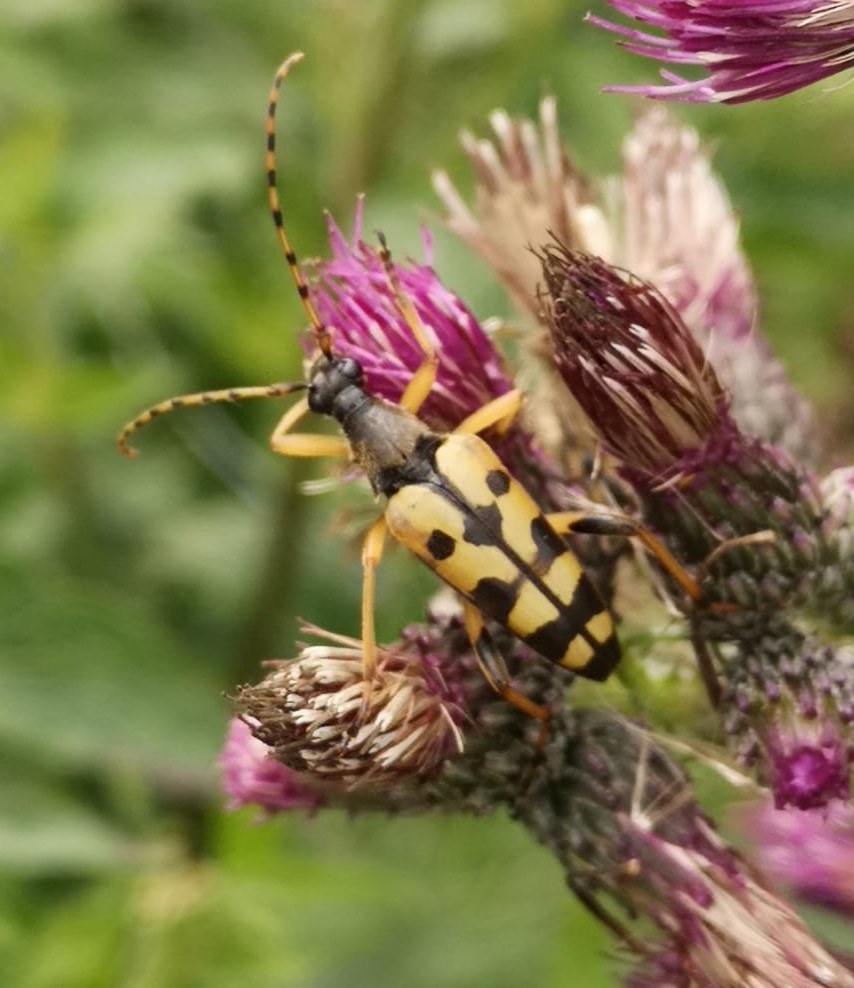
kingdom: Animalia
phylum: Arthropoda
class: Insecta
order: Coleoptera
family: Cerambycidae
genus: Rutpela
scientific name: Rutpela maculata
